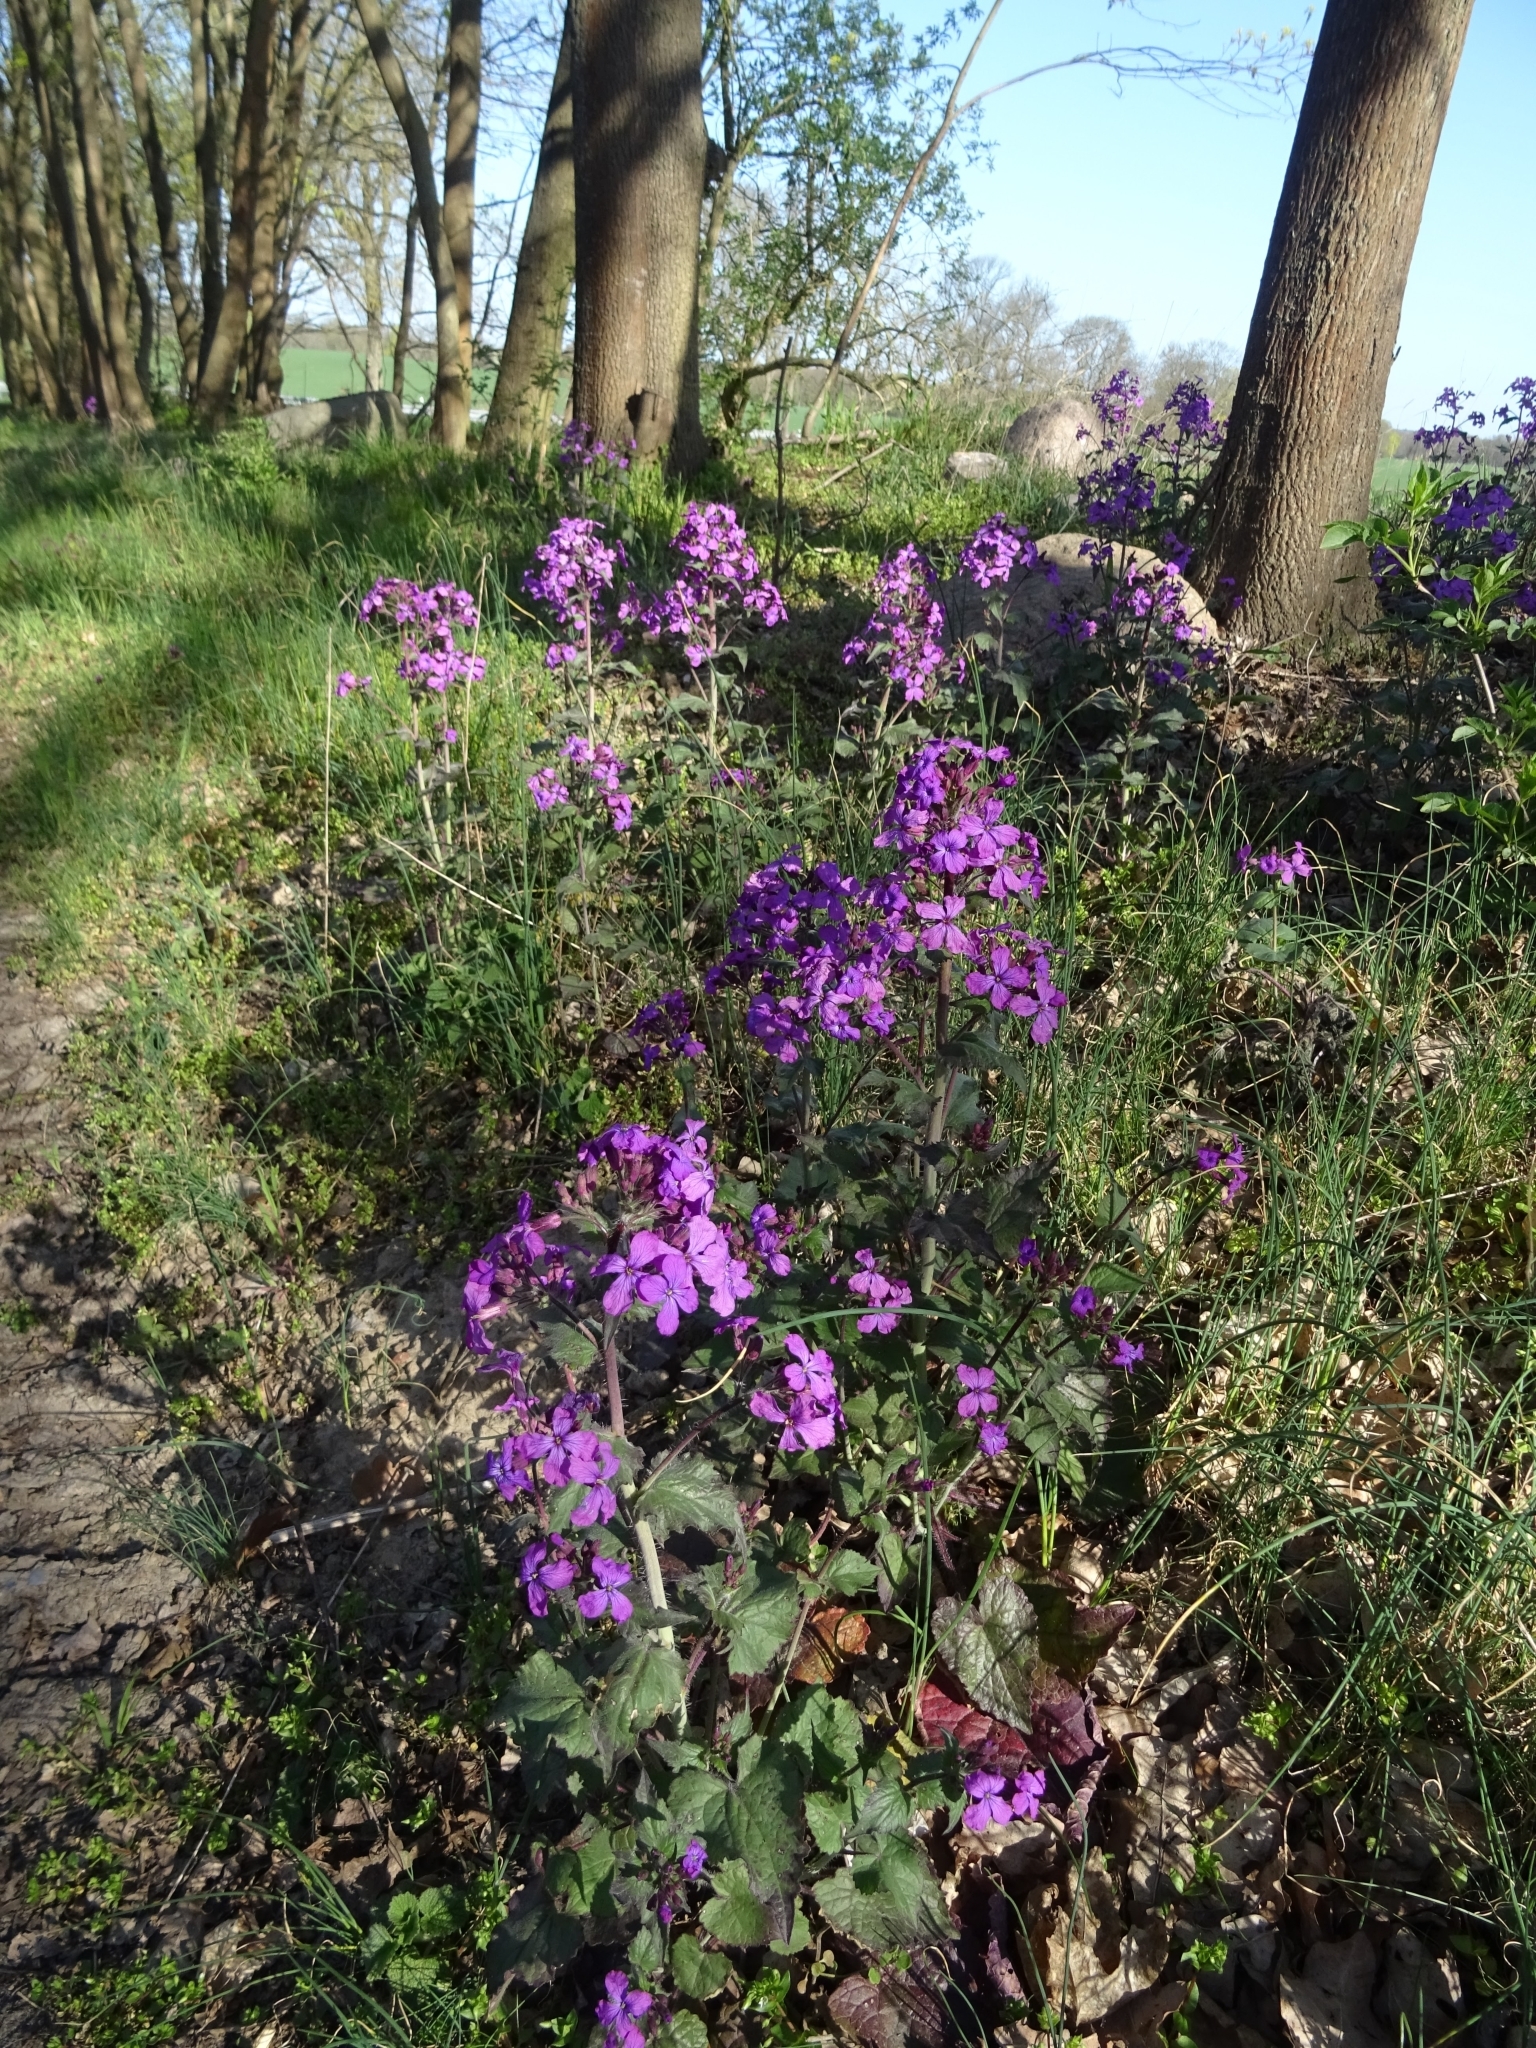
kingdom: Plantae
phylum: Tracheophyta
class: Magnoliopsida
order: Brassicales
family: Brassicaceae
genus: Lunaria
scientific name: Lunaria annua
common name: Honesty
